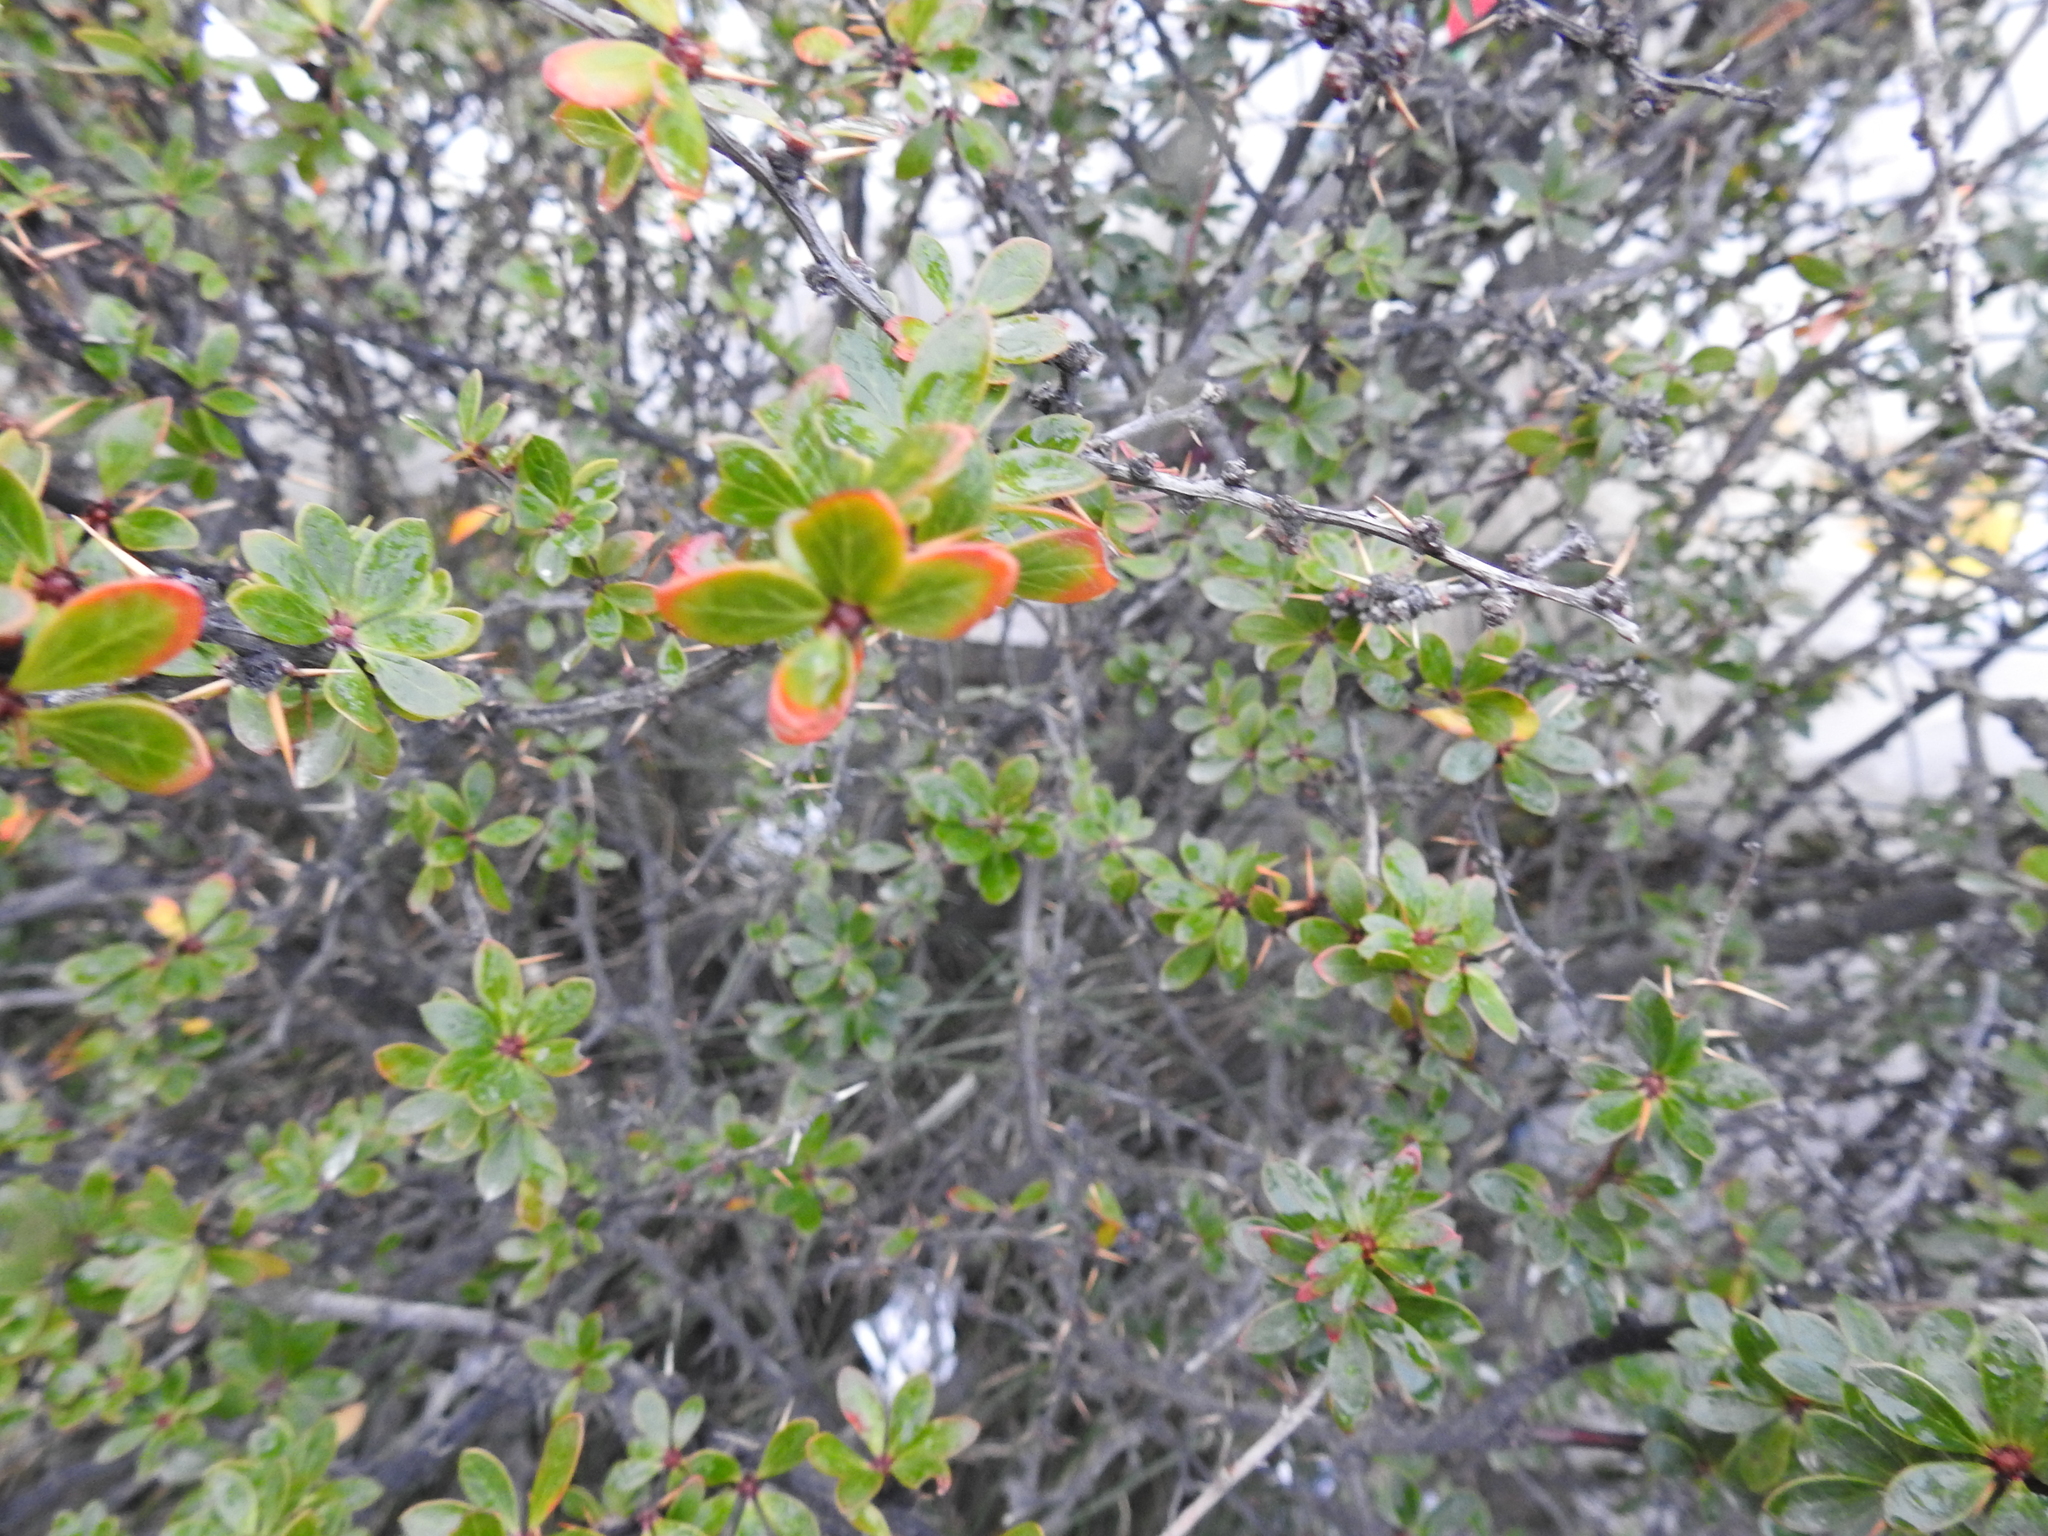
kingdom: Plantae
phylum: Tracheophyta
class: Magnoliopsida
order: Ranunculales
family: Berberidaceae
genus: Berberis
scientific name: Berberis microphylla
